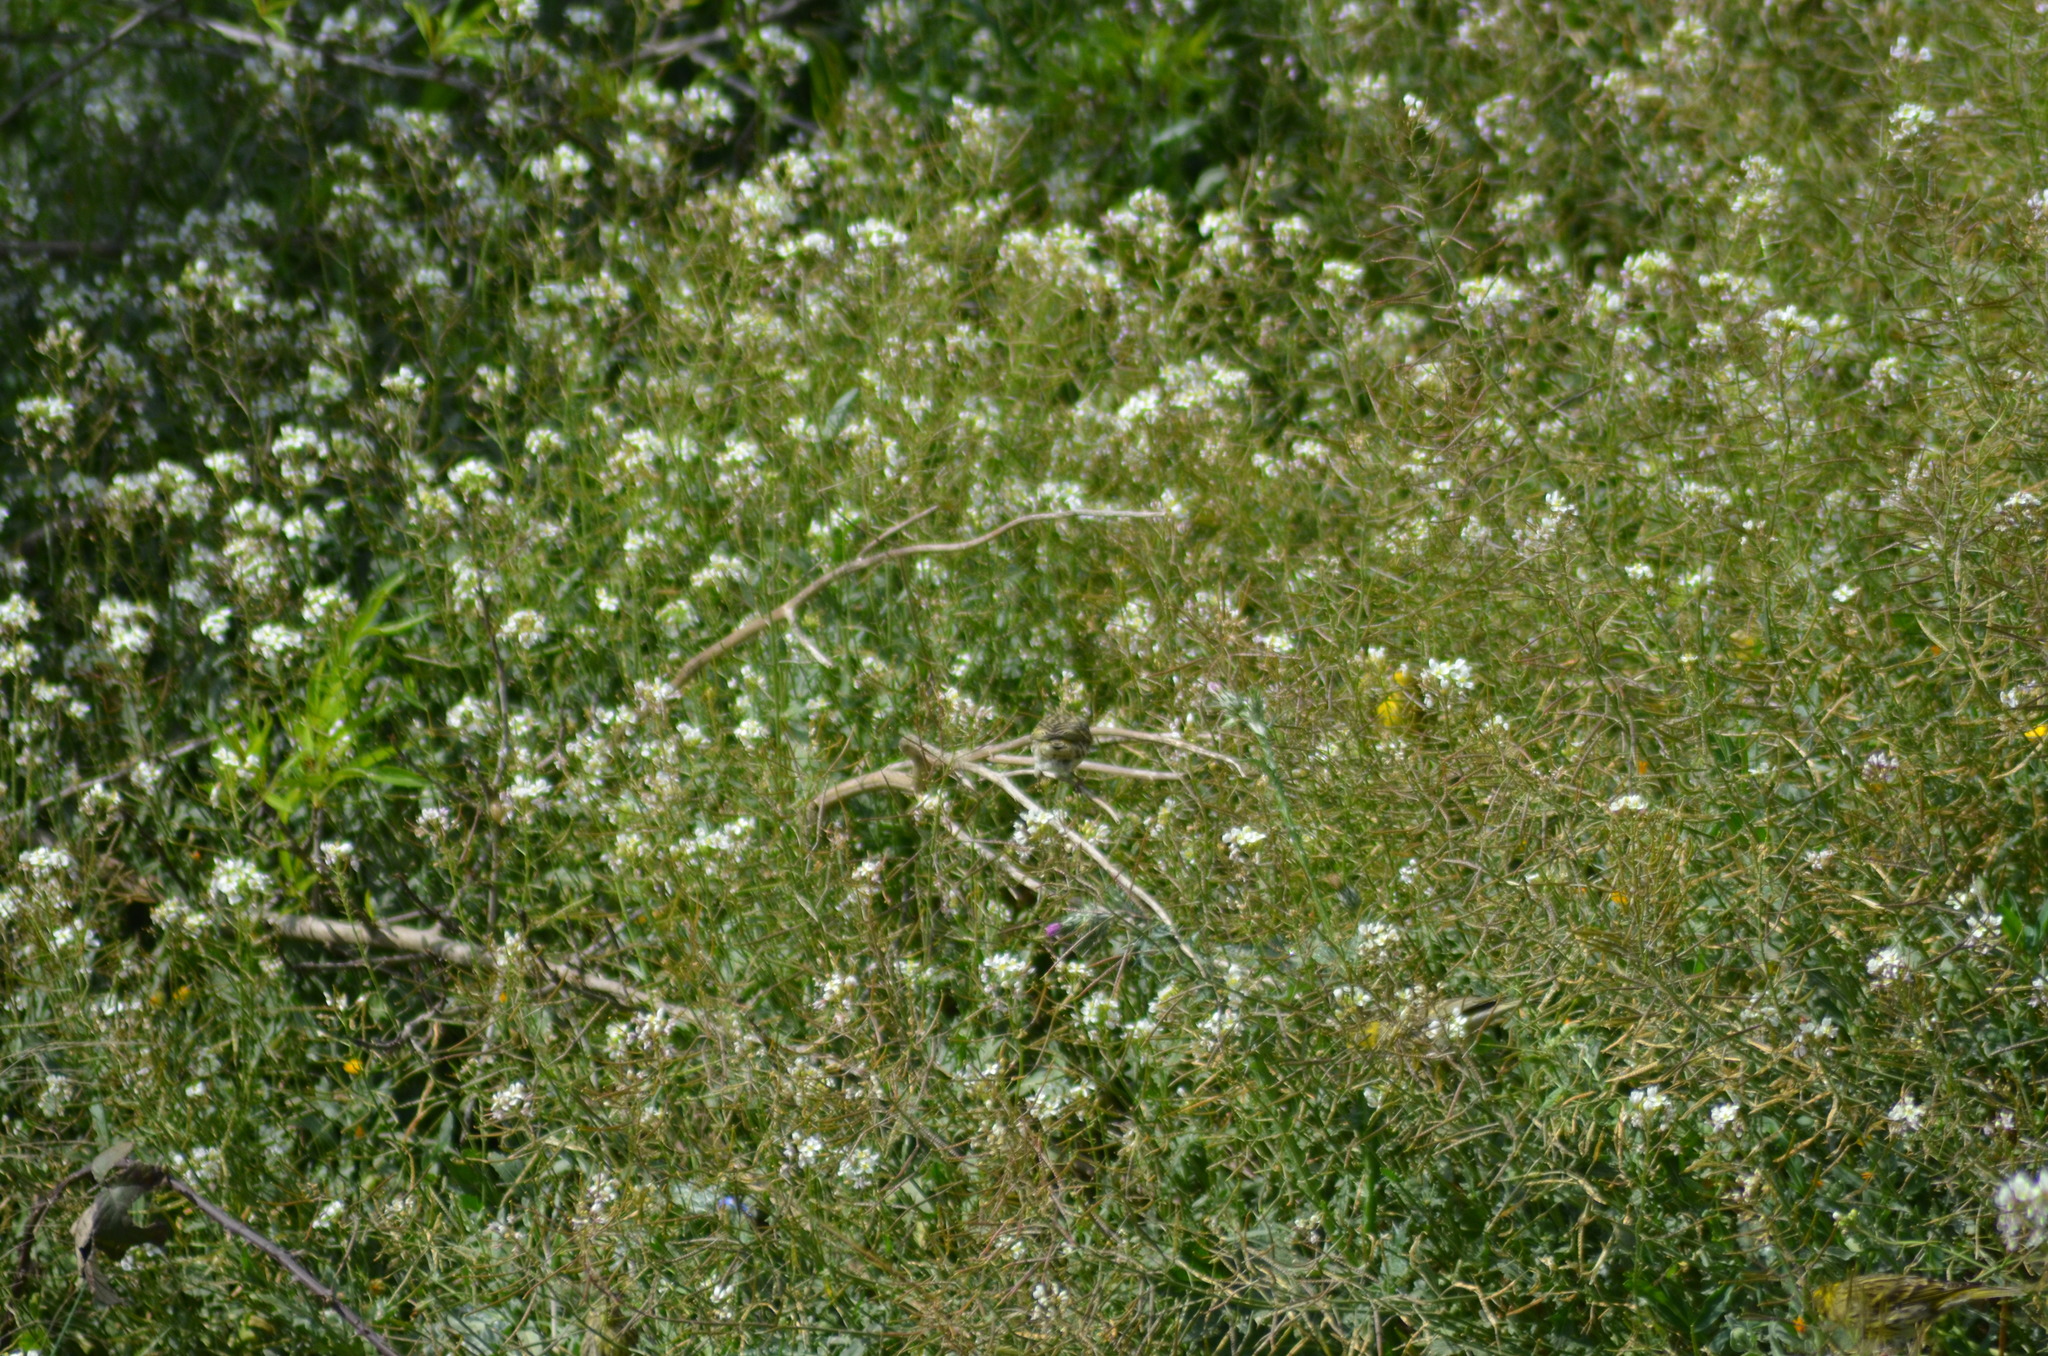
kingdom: Animalia
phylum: Chordata
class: Aves
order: Passeriformes
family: Fringillidae
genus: Serinus
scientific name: Serinus serinus
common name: European serin
